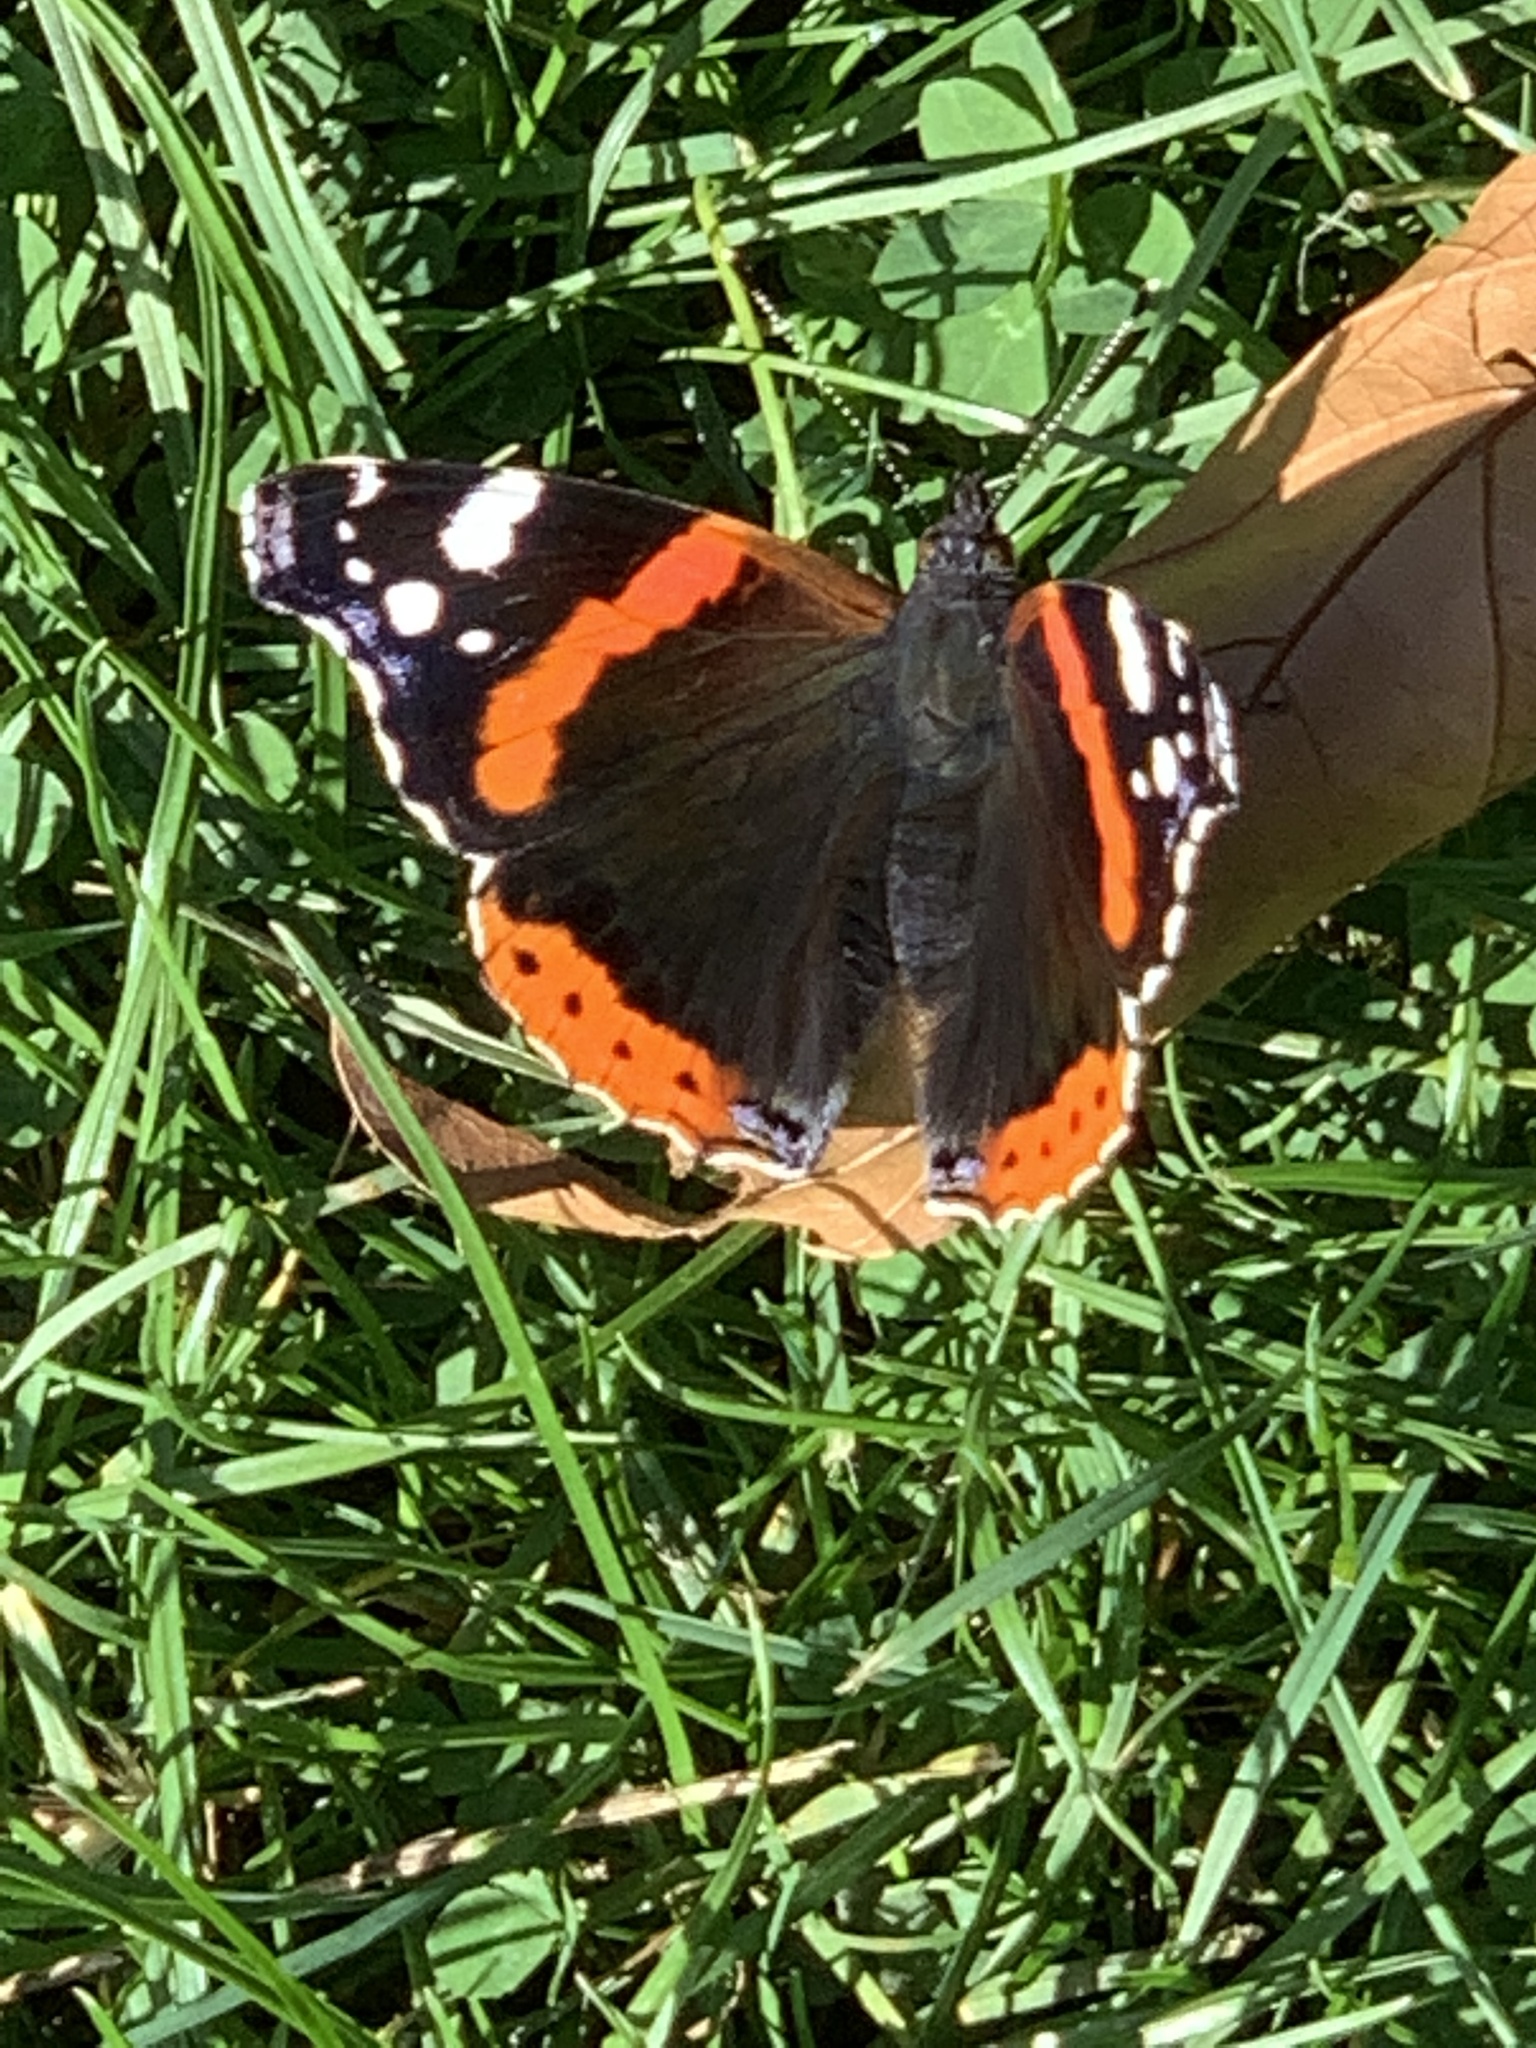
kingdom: Animalia
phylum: Arthropoda
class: Insecta
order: Lepidoptera
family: Nymphalidae
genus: Vanessa
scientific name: Vanessa atalanta
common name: Red admiral
